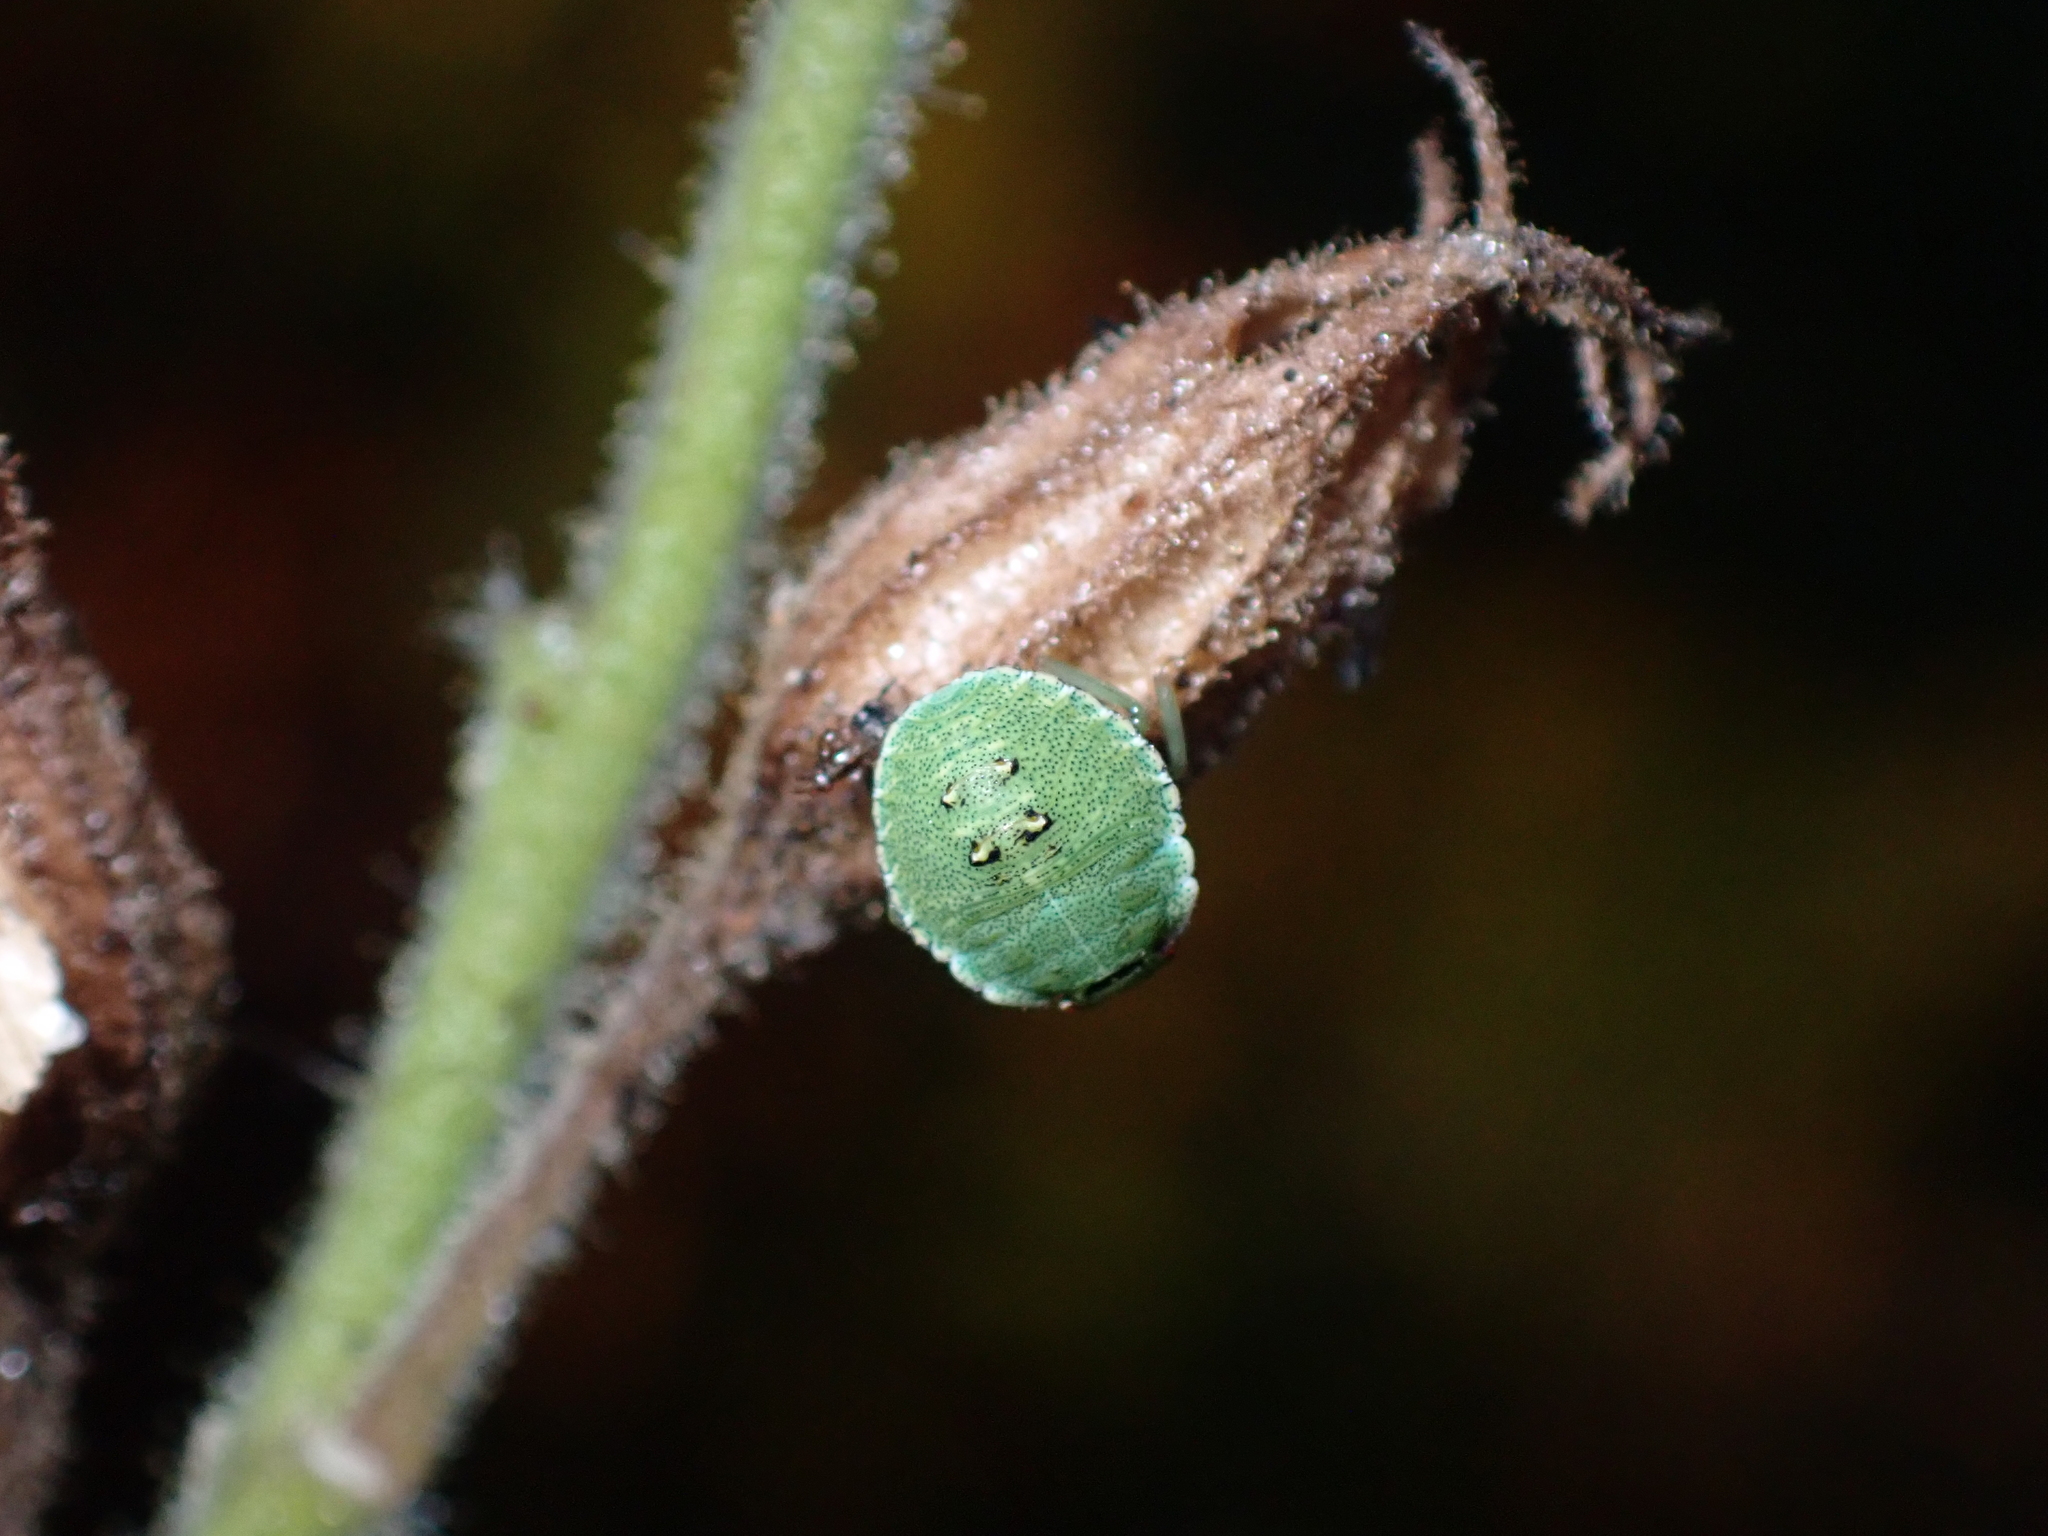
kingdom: Animalia
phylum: Arthropoda
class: Insecta
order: Hemiptera
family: Pentatomidae
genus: Palomena
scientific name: Palomena prasina
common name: Green shieldbug
